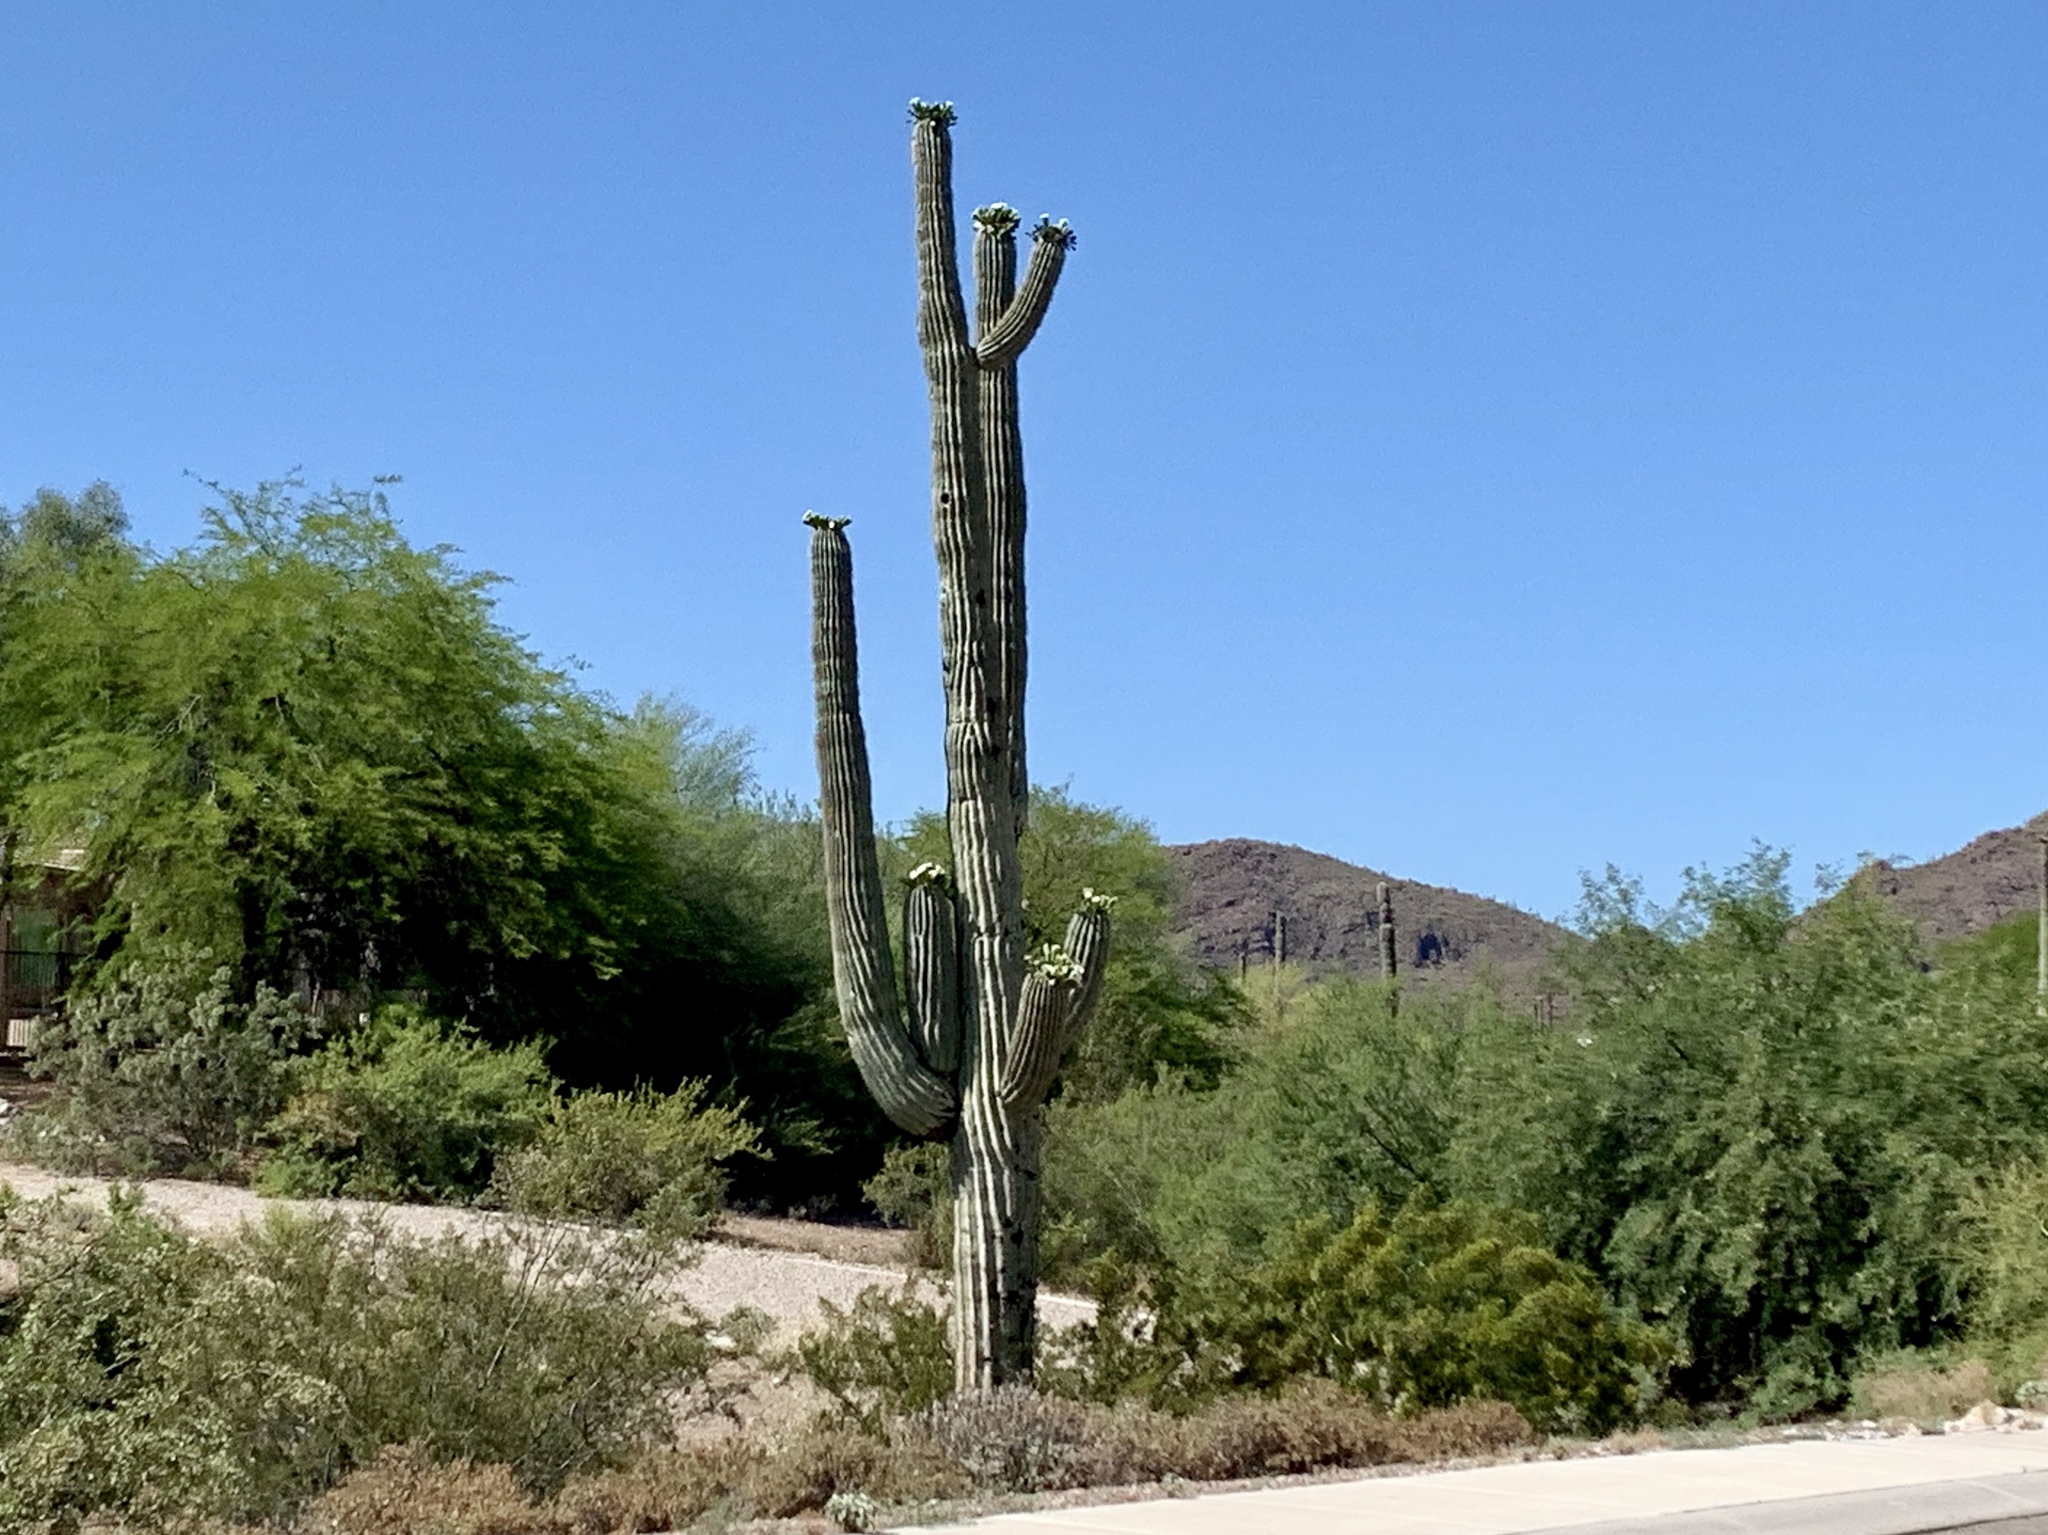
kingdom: Plantae
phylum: Tracheophyta
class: Magnoliopsida
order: Caryophyllales
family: Cactaceae
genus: Carnegiea
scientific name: Carnegiea gigantea
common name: Saguaro
